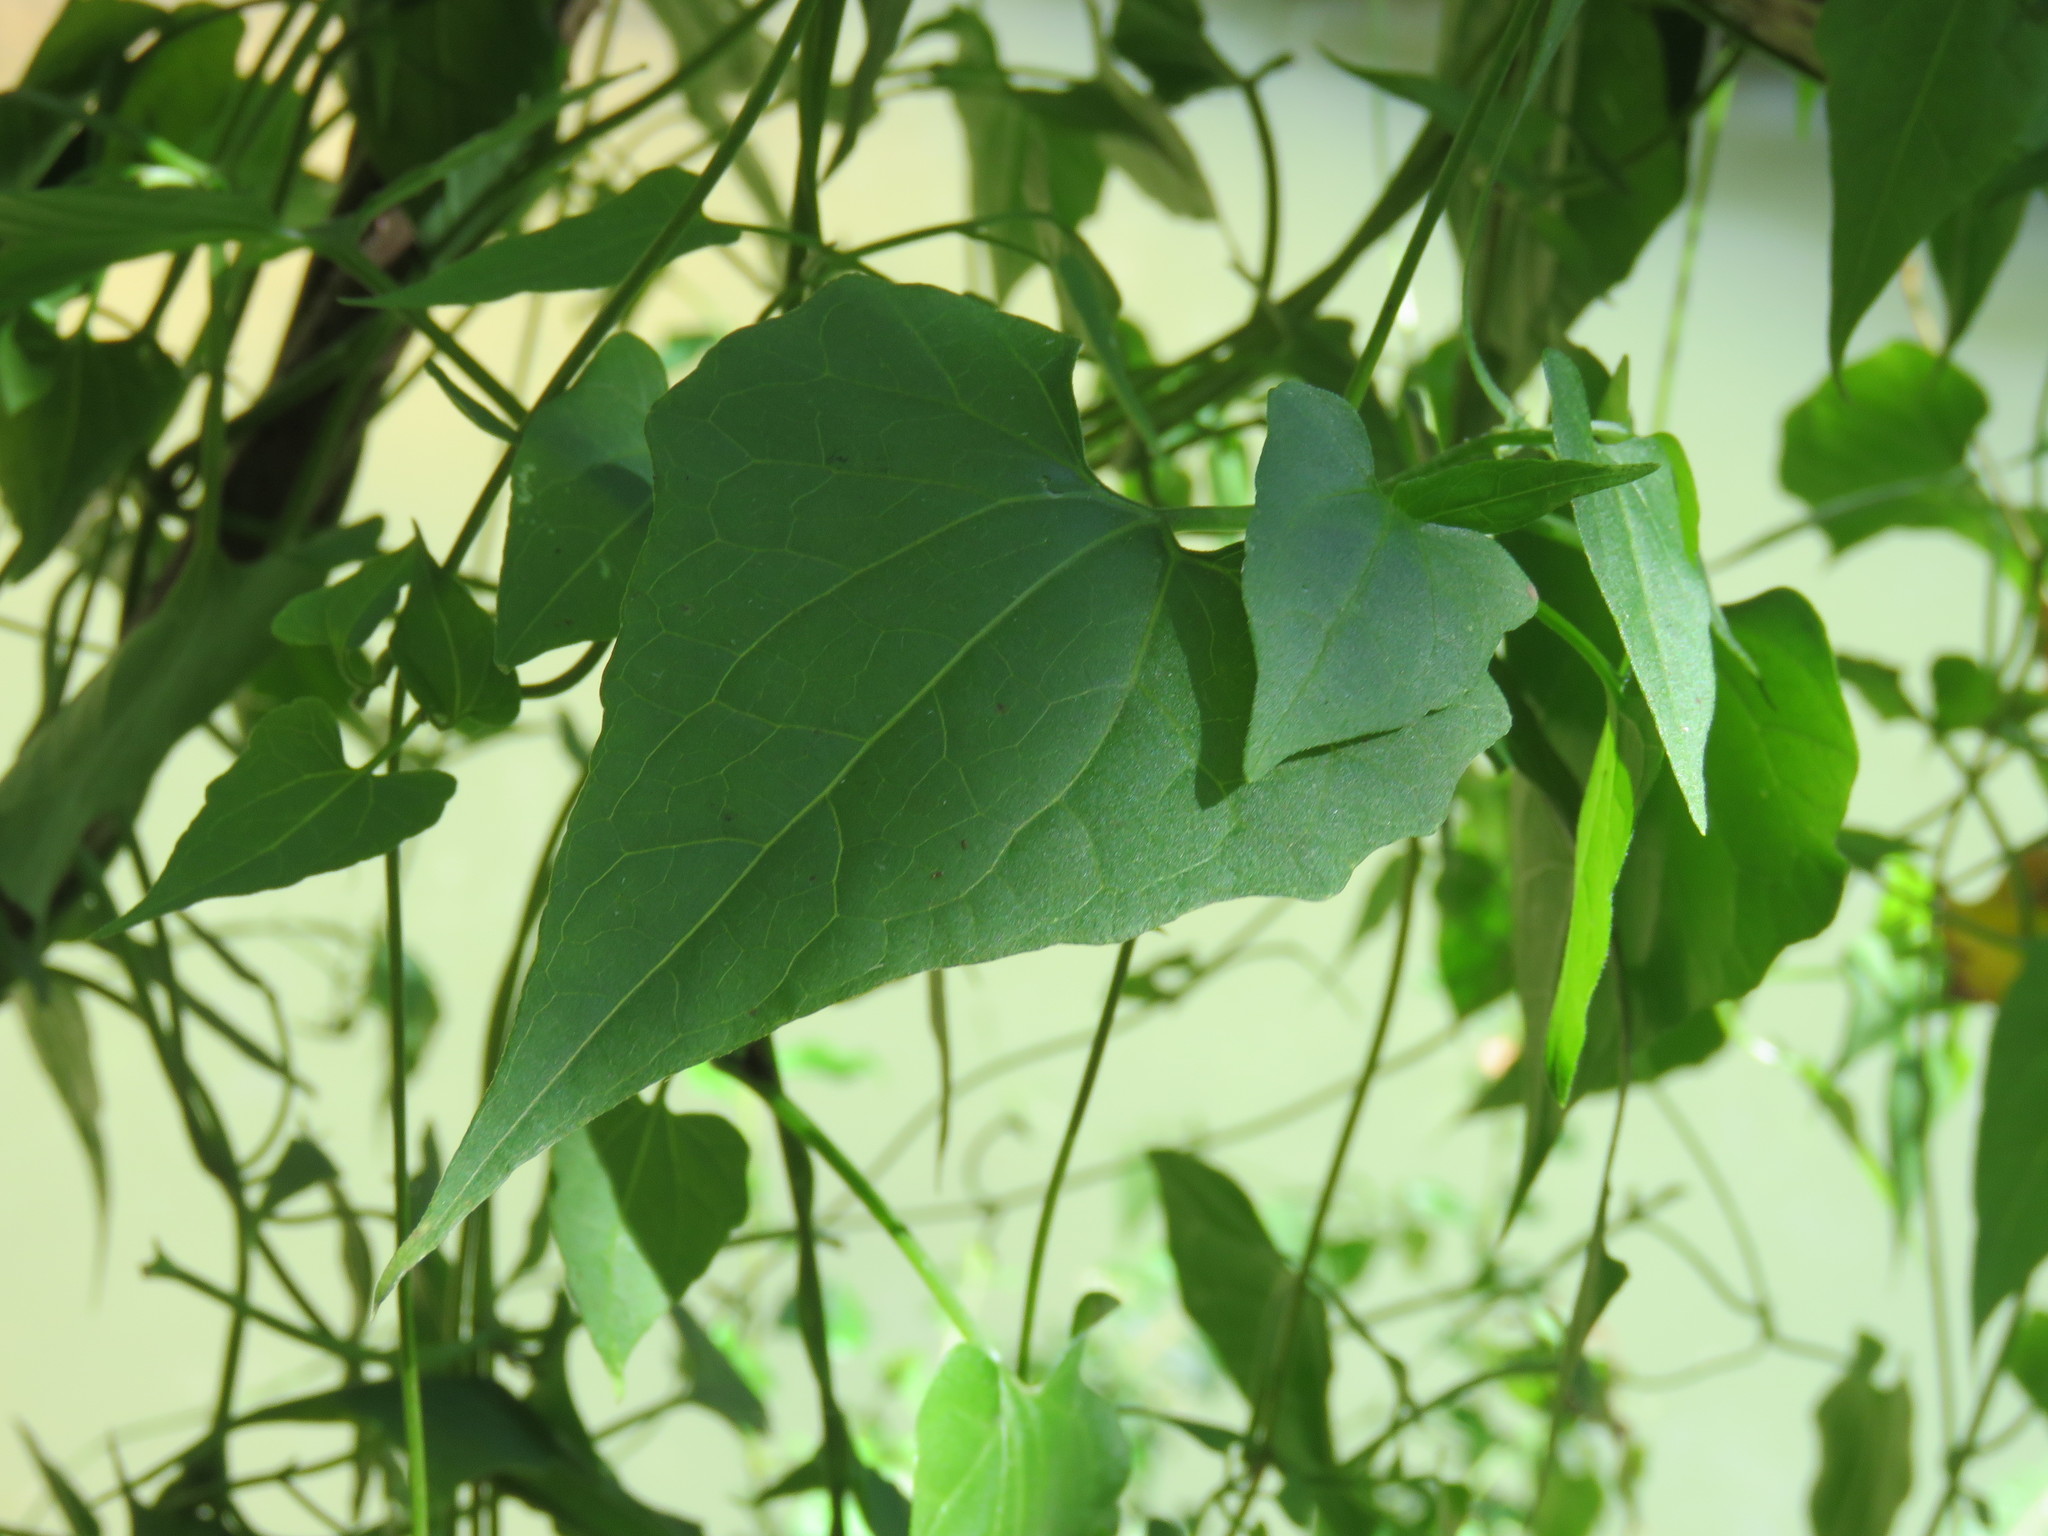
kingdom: Plantae
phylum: Tracheophyta
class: Magnoliopsida
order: Asterales
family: Asteraceae
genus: Mikania
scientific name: Mikania cordifolia
